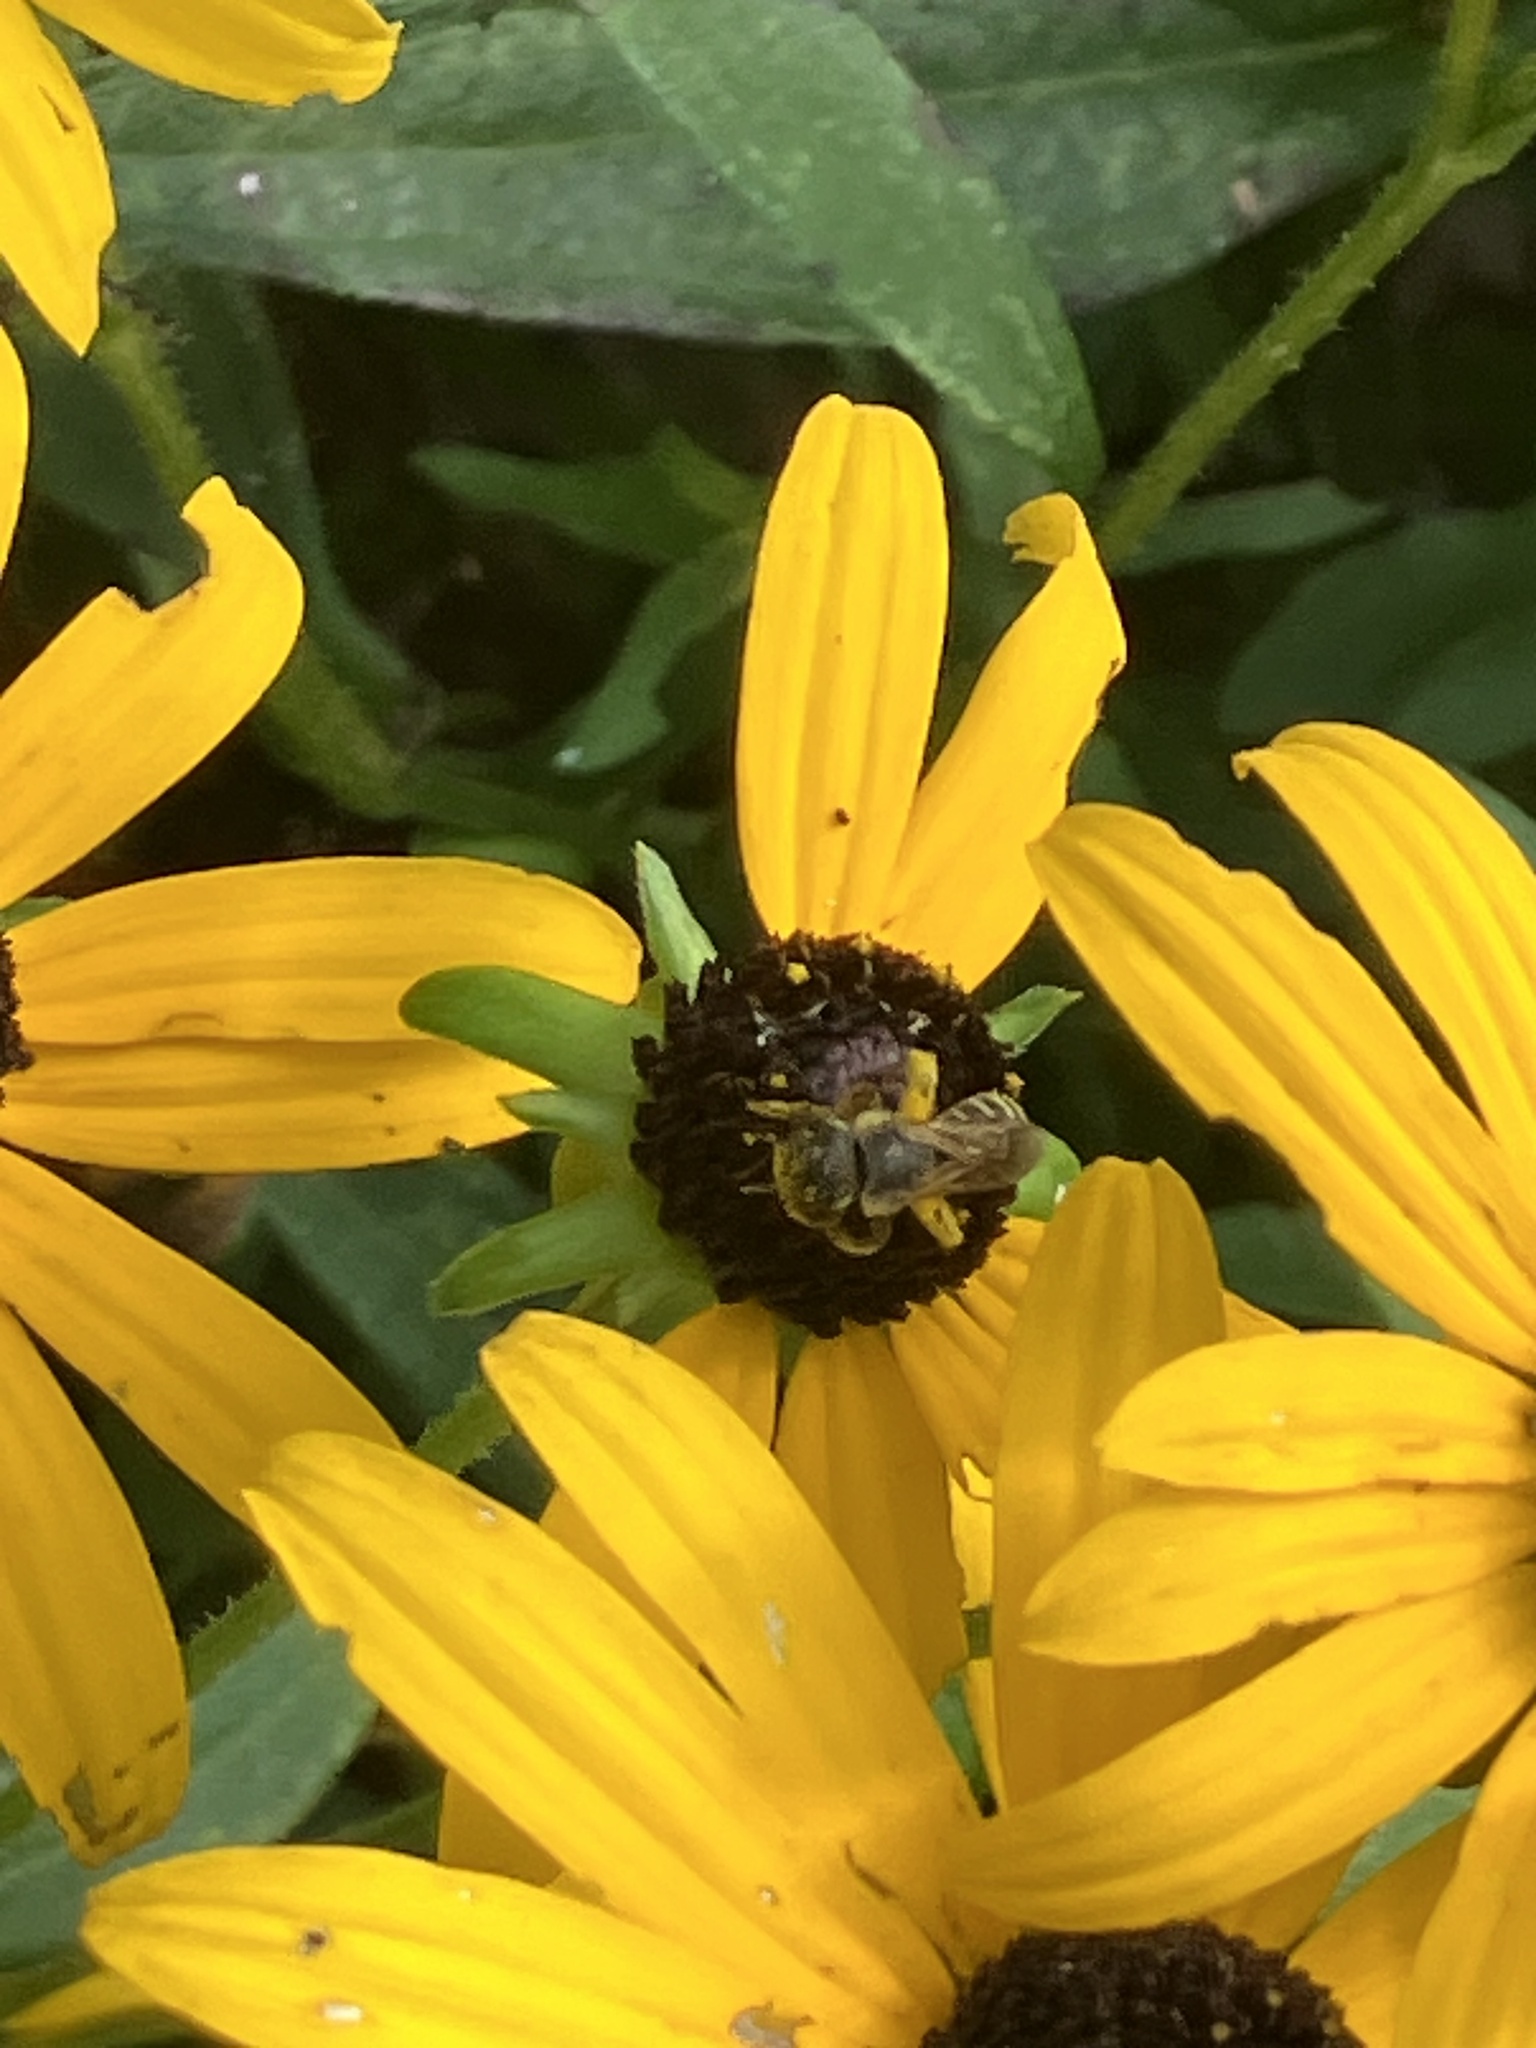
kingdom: Animalia
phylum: Arthropoda
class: Insecta
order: Hymenoptera
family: Halictidae
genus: Halictus
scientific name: Halictus ligatus
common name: Ligated furrow bee
